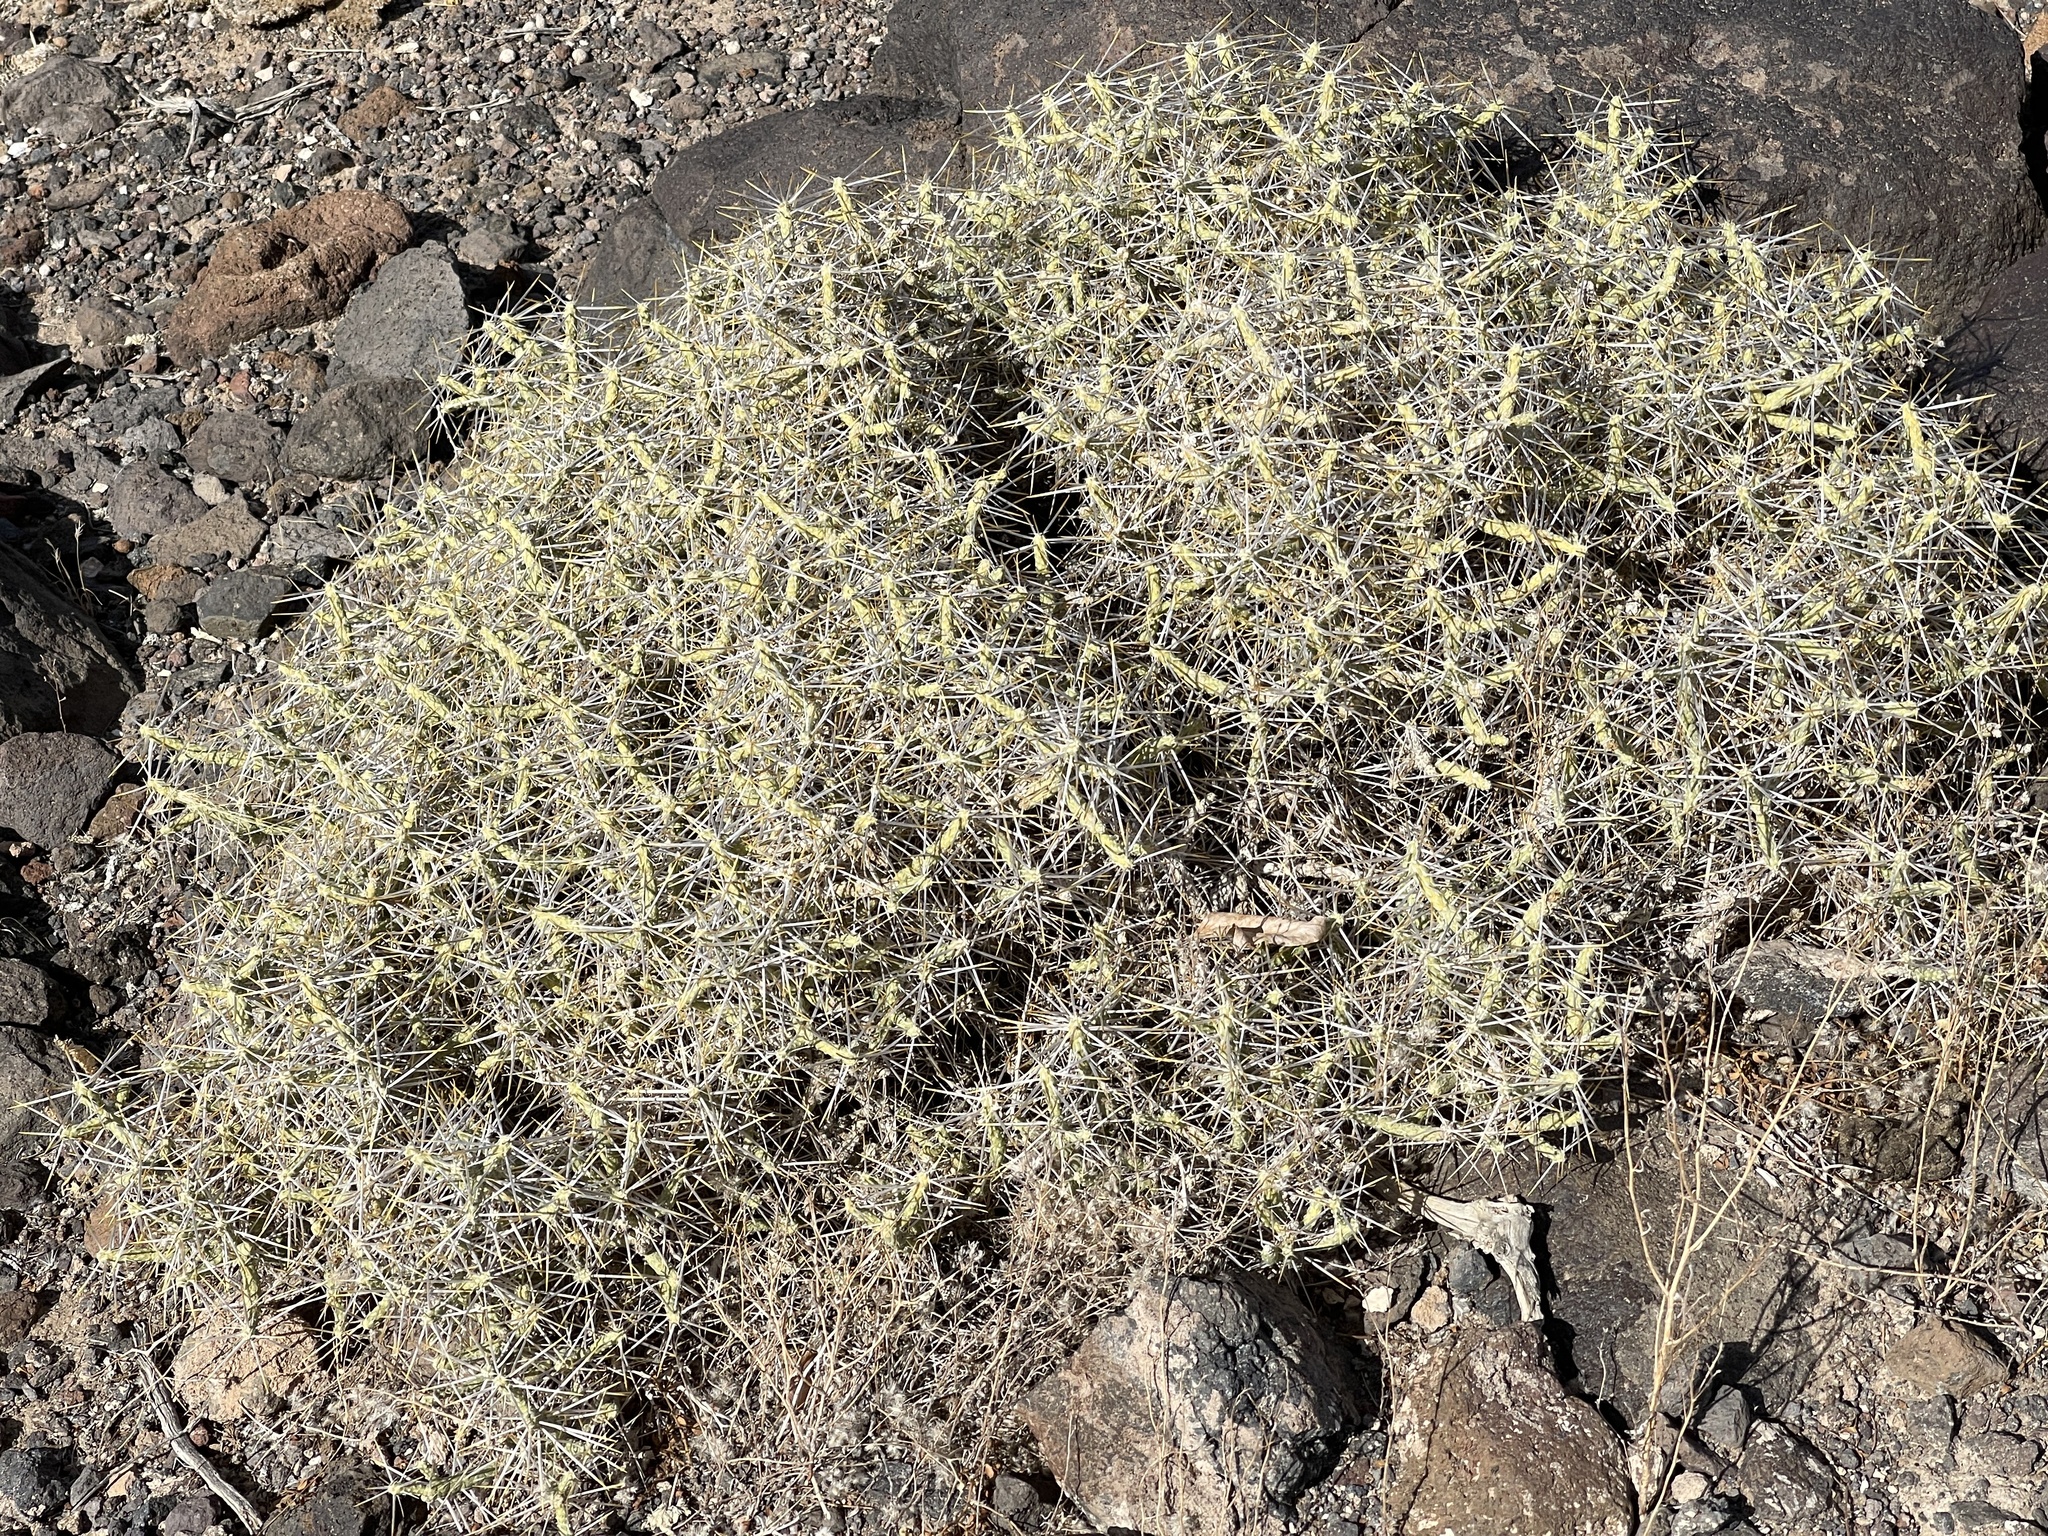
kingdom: Plantae
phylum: Tracheophyta
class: Magnoliopsida
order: Caryophyllales
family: Cactaceae
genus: Cylindropuntia
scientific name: Cylindropuntia ramosissima
